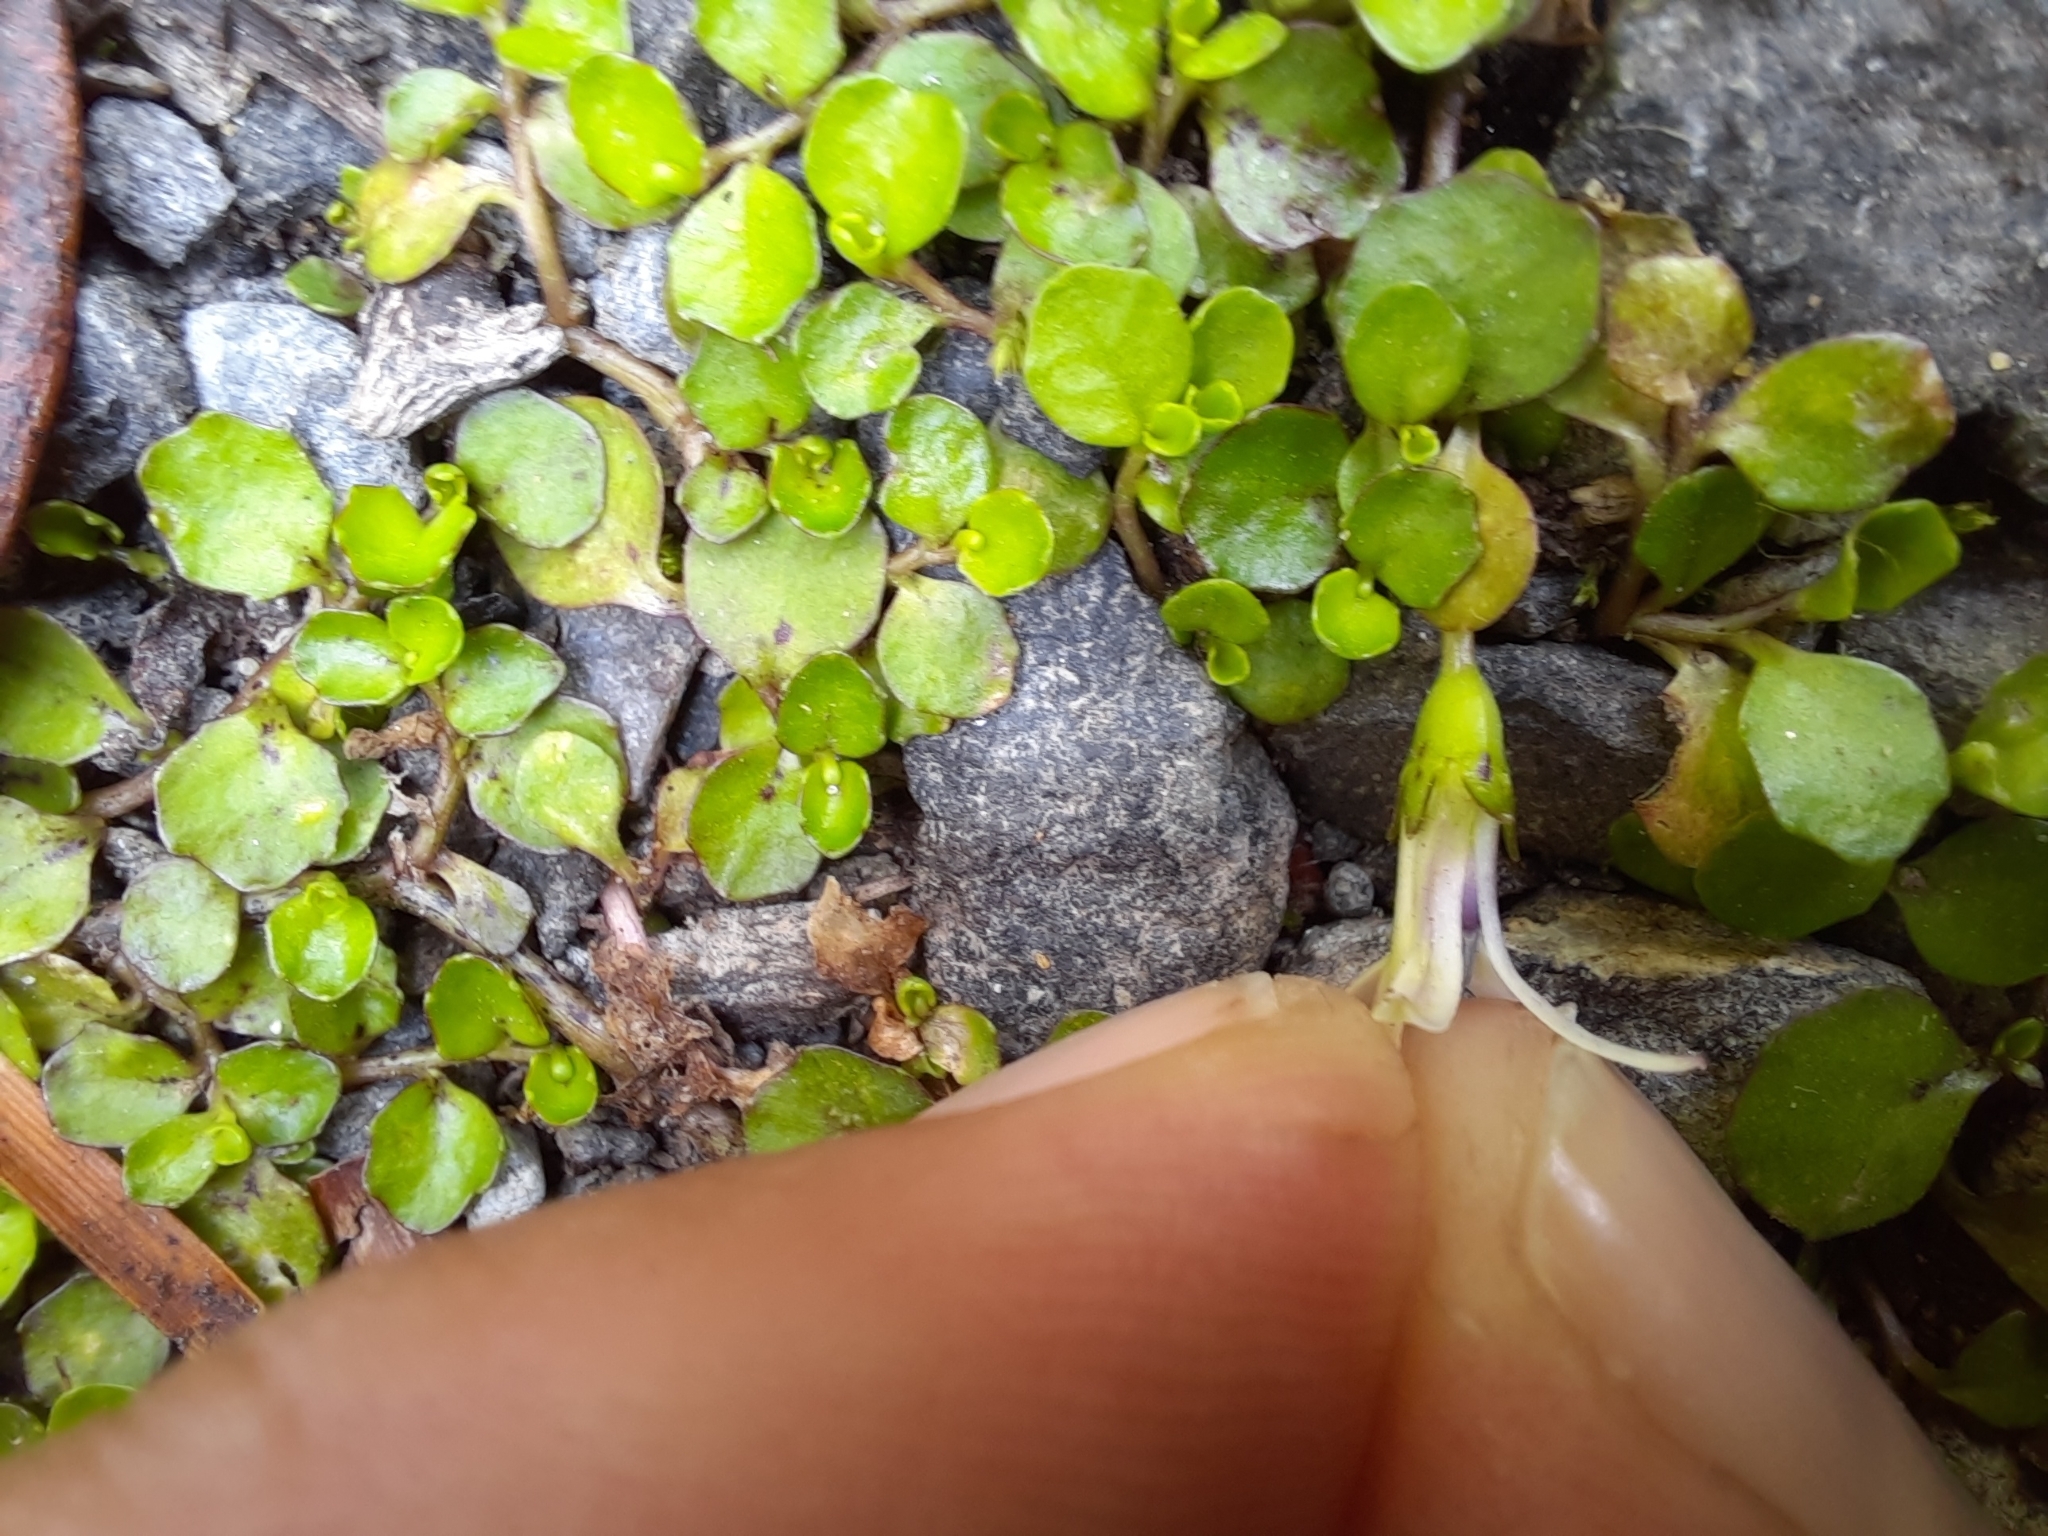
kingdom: Plantae
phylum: Tracheophyta
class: Magnoliopsida
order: Asterales
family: Campanulaceae
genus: Lobelia
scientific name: Lobelia angulata
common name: Lawn lobelia
